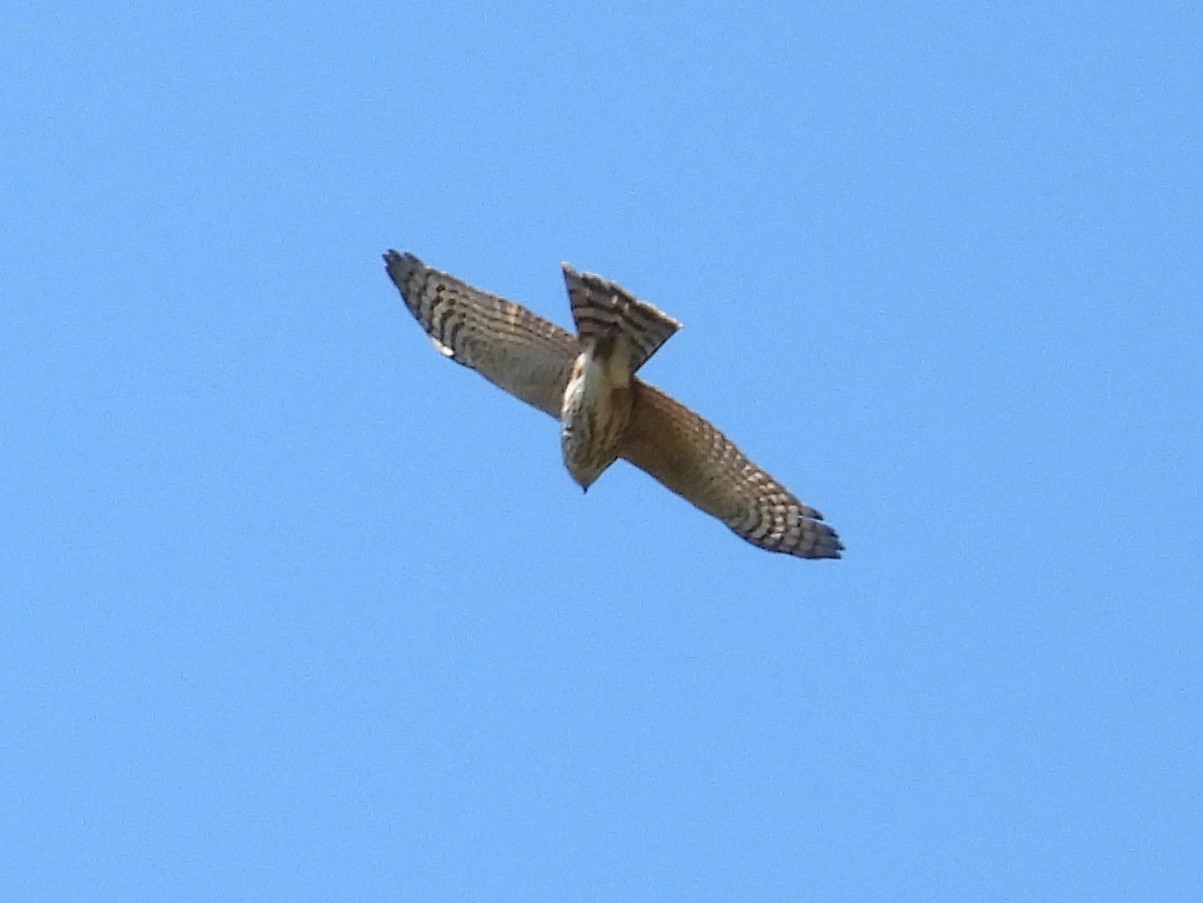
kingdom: Animalia
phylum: Chordata
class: Aves
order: Accipitriformes
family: Accipitridae
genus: Accipiter
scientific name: Accipiter striatus
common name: Sharp-shinned hawk
